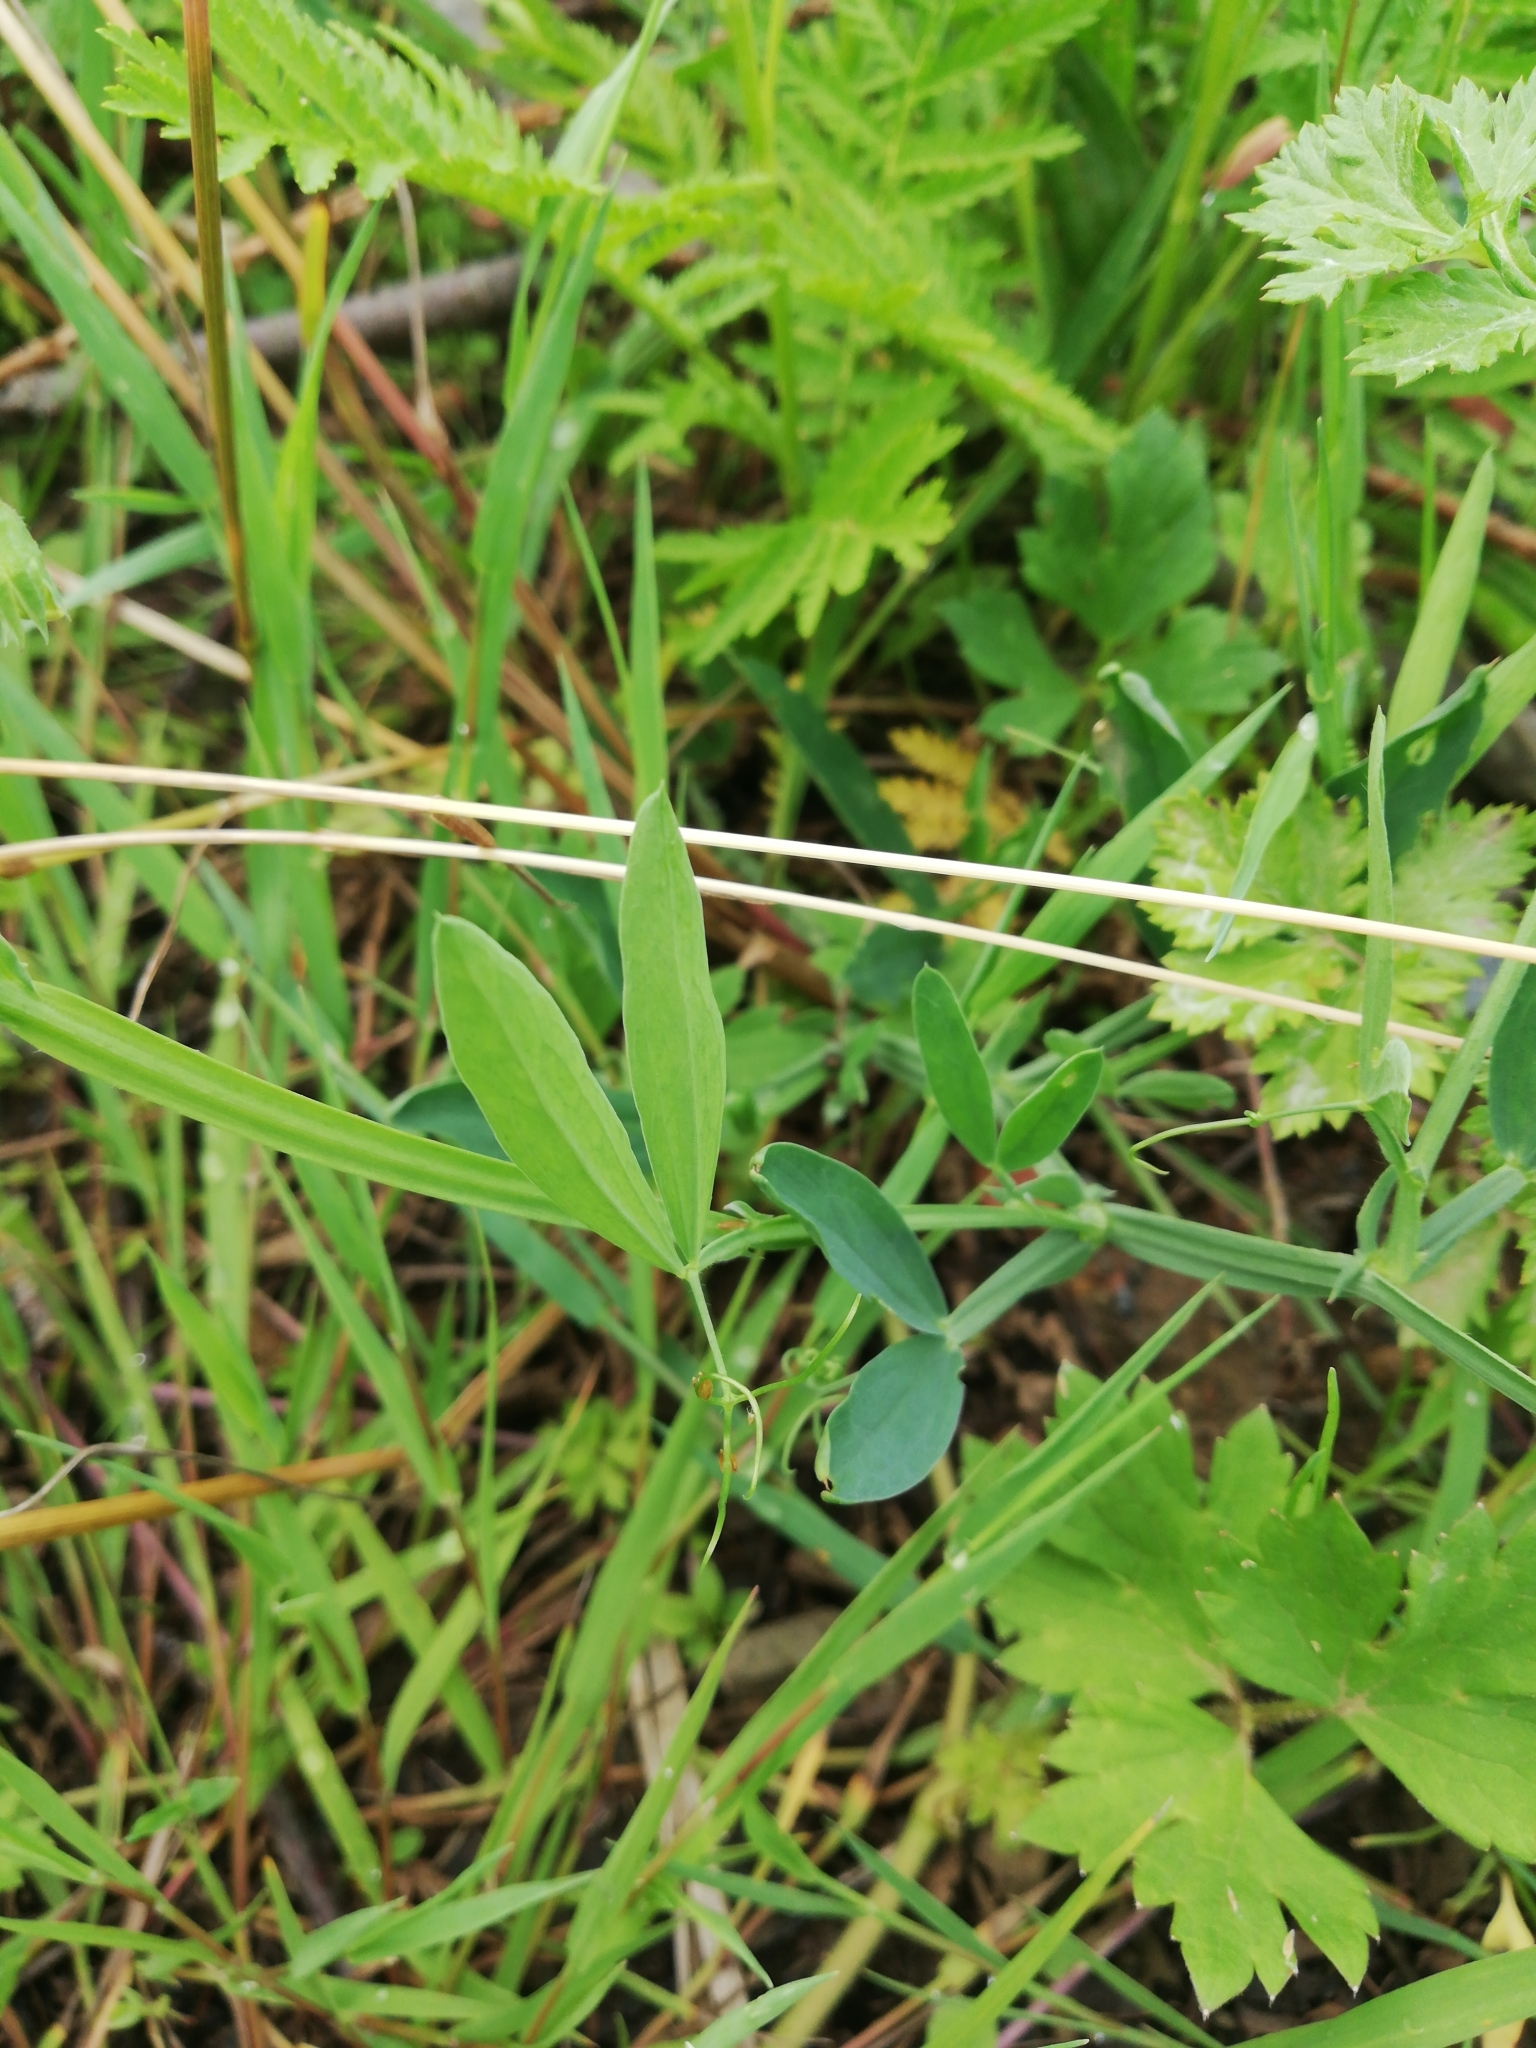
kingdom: Plantae
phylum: Tracheophyta
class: Magnoliopsida
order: Fabales
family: Fabaceae
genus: Lathyrus
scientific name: Lathyrus hirsutus
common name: Hairy vetchling
